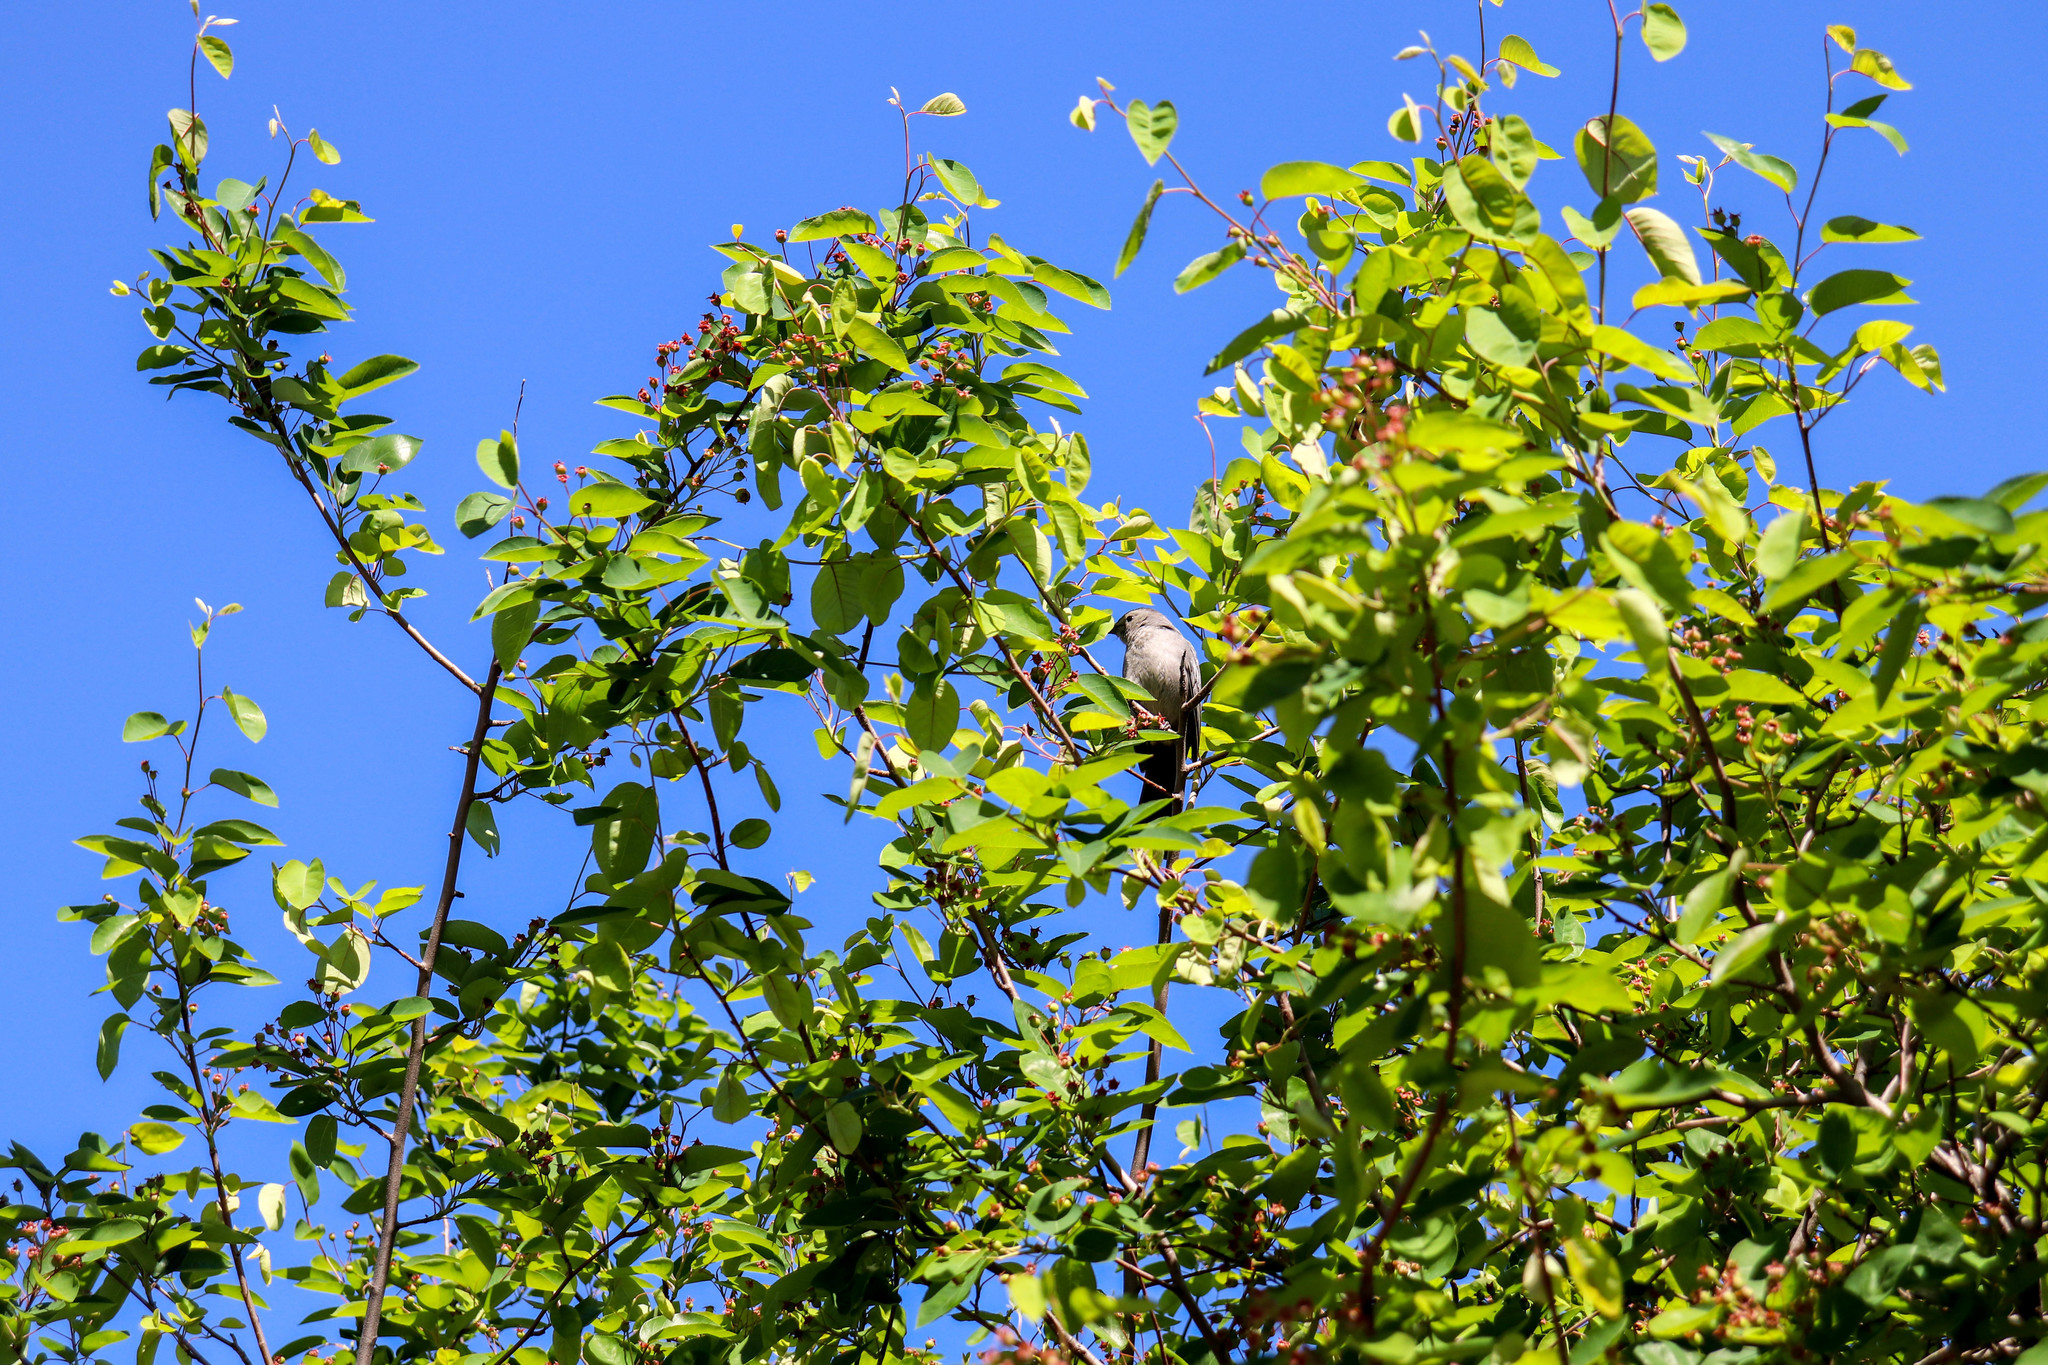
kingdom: Animalia
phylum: Chordata
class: Aves
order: Passeriformes
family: Mimidae
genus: Dumetella
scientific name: Dumetella carolinensis
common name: Gray catbird
